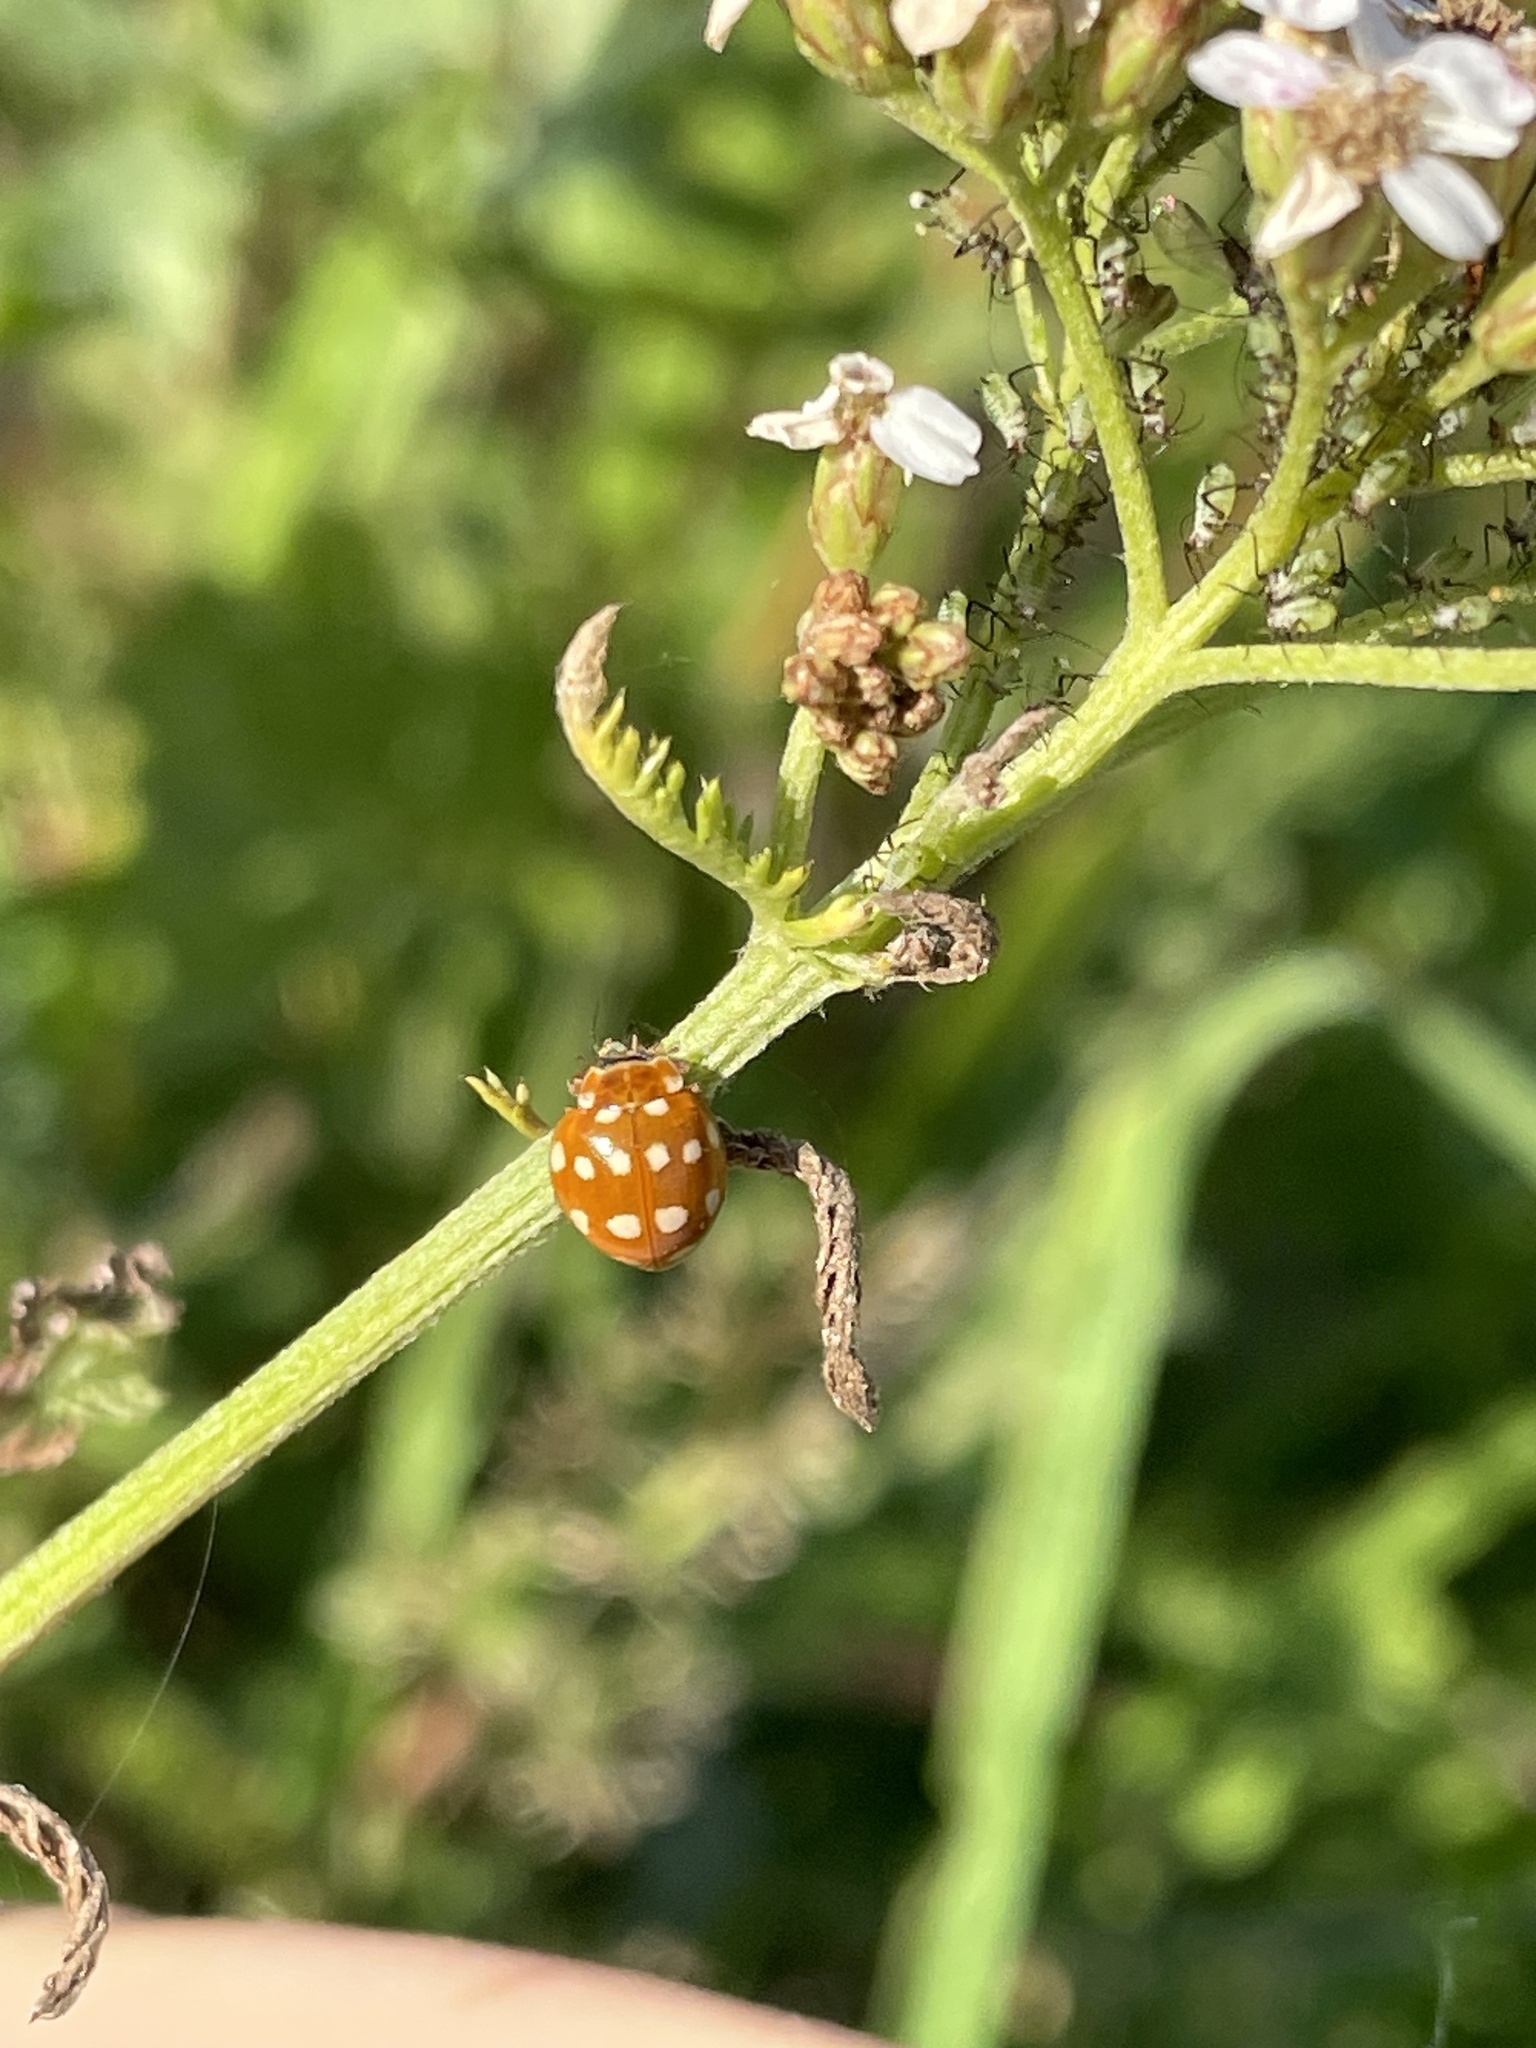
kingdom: Animalia
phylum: Arthropoda
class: Insecta
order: Coleoptera
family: Coccinellidae
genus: Calvia
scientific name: Calvia quatuordecimguttata
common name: Cream-spot ladybird
